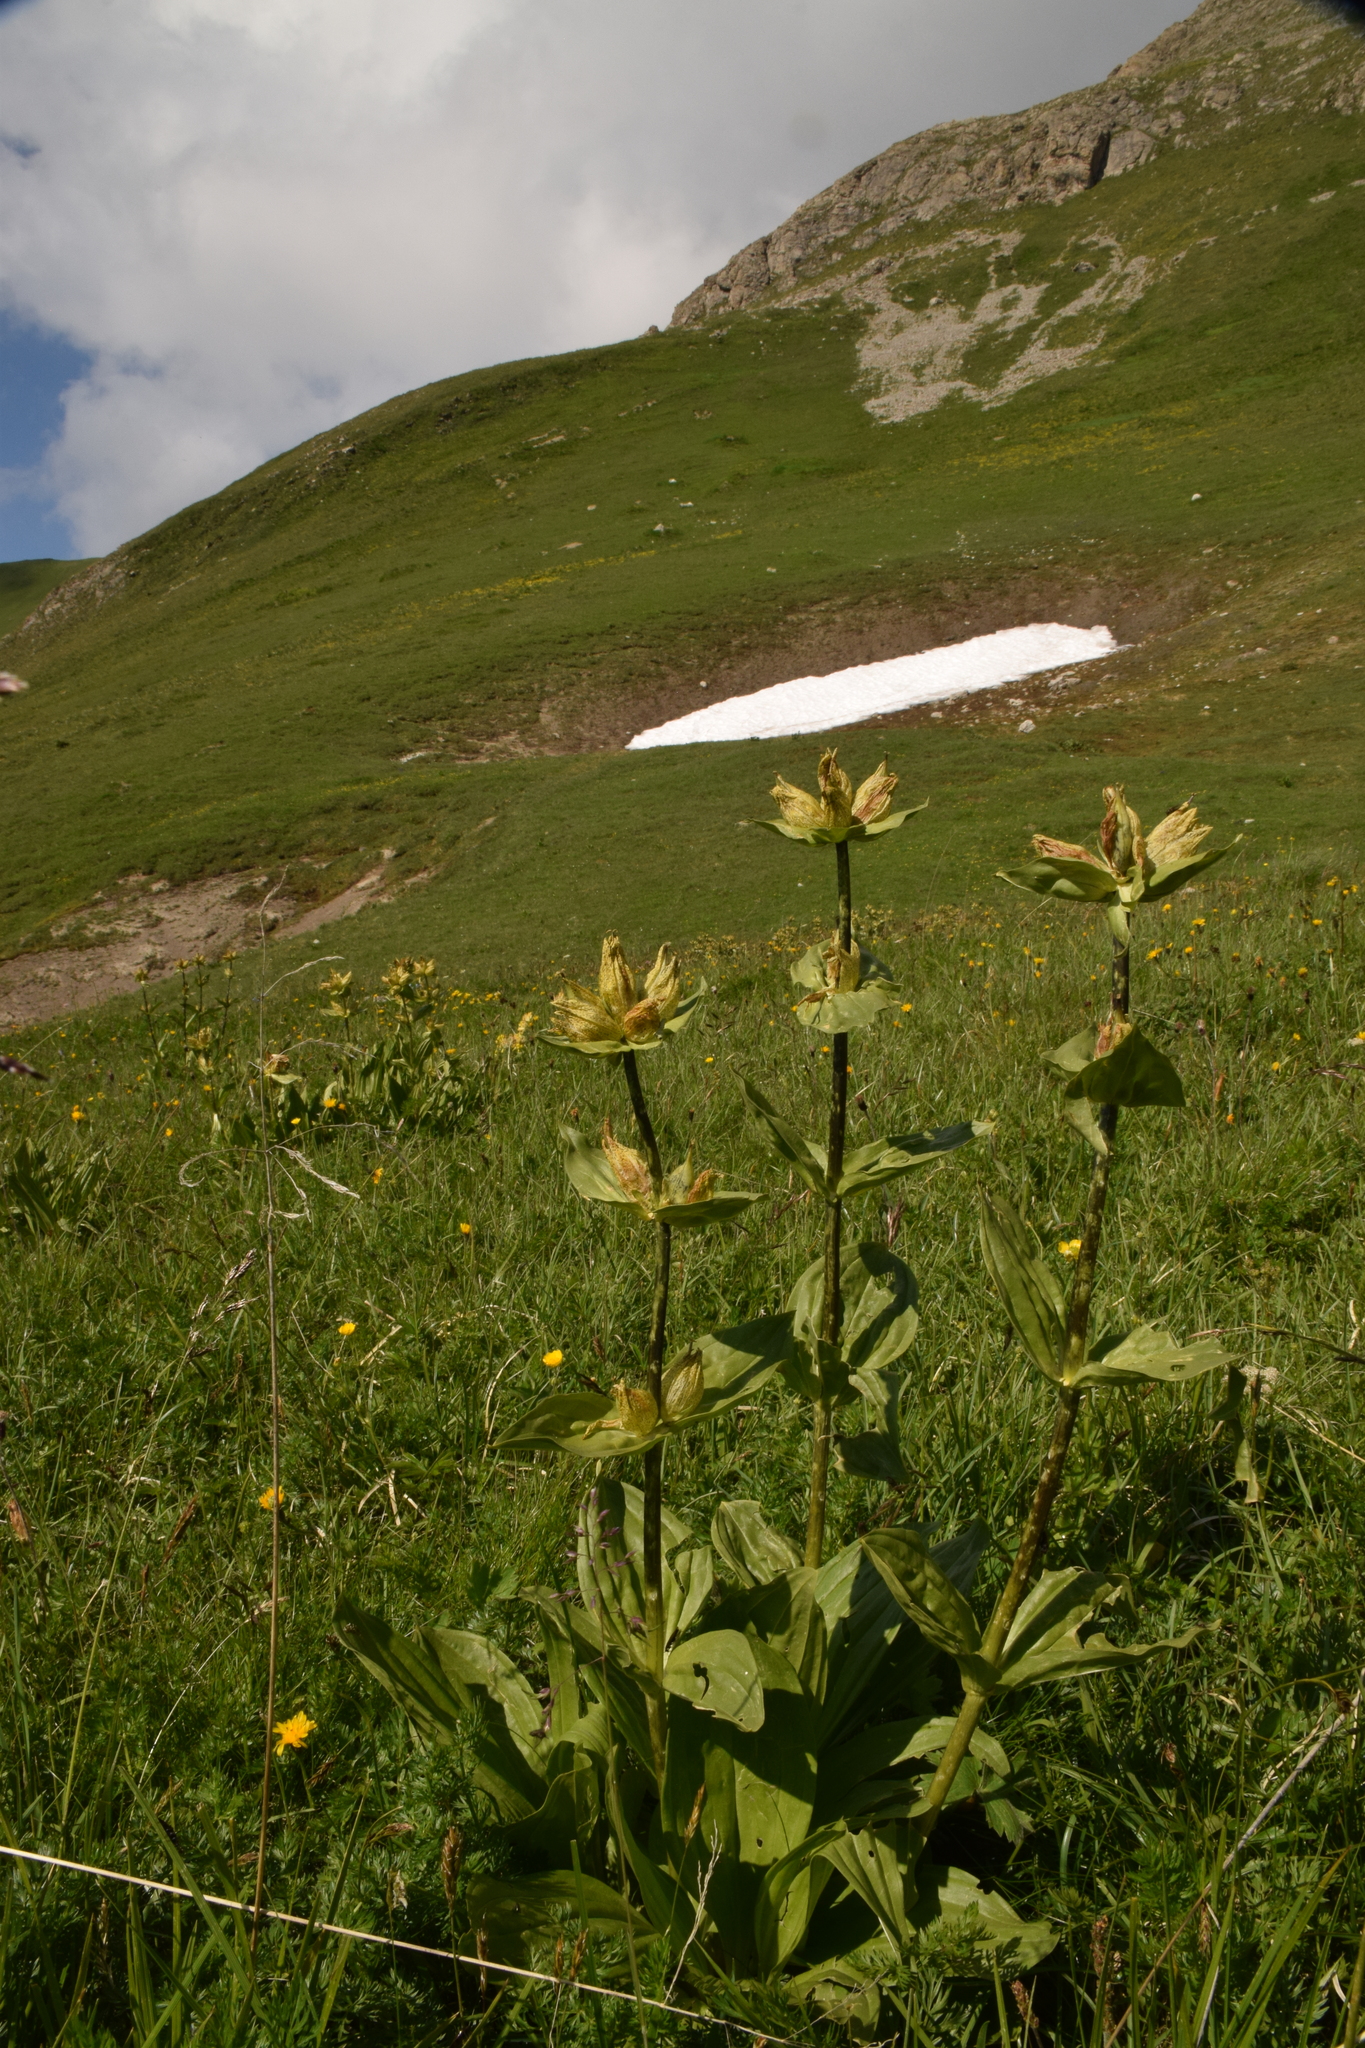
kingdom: Plantae
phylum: Tracheophyta
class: Magnoliopsida
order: Gentianales
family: Gentianaceae
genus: Gentiana
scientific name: Gentiana punctata
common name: Spotted gentian
